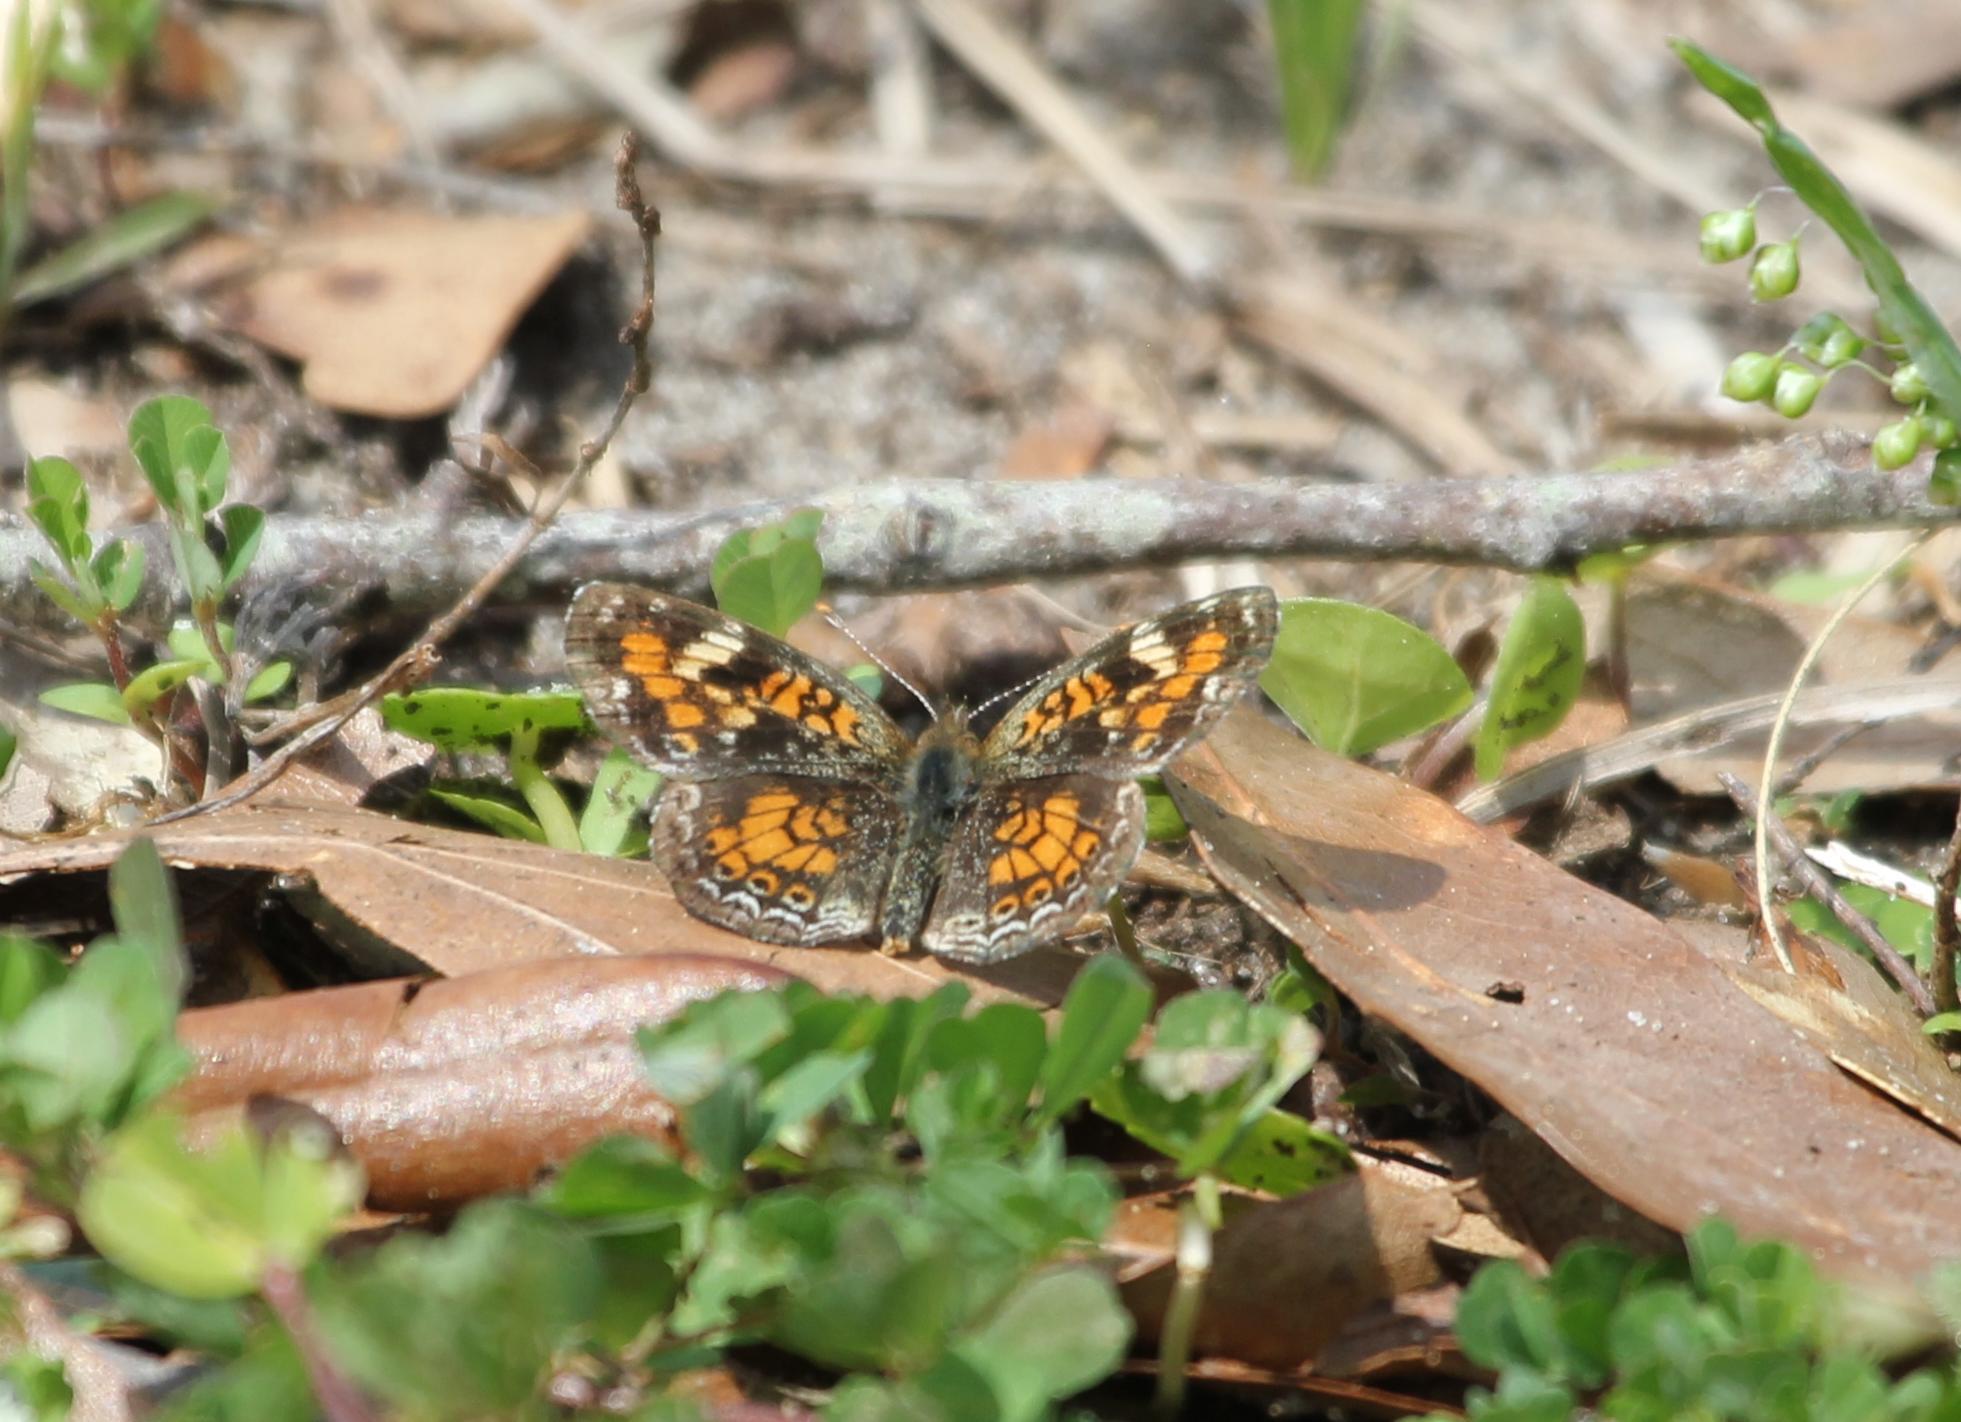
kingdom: Animalia
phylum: Arthropoda
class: Insecta
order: Lepidoptera
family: Nymphalidae
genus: Phyciodes
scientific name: Phyciodes phaon
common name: Phaon crescent
